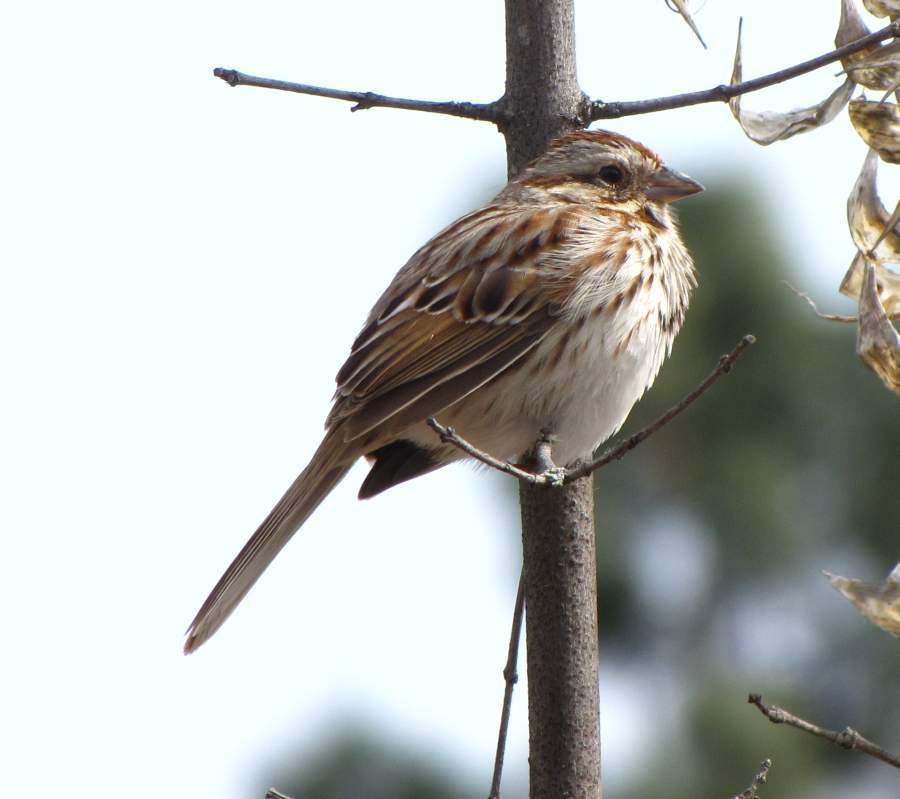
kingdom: Animalia
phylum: Chordata
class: Aves
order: Passeriformes
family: Passerellidae
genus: Melospiza
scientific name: Melospiza melodia
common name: Song sparrow
